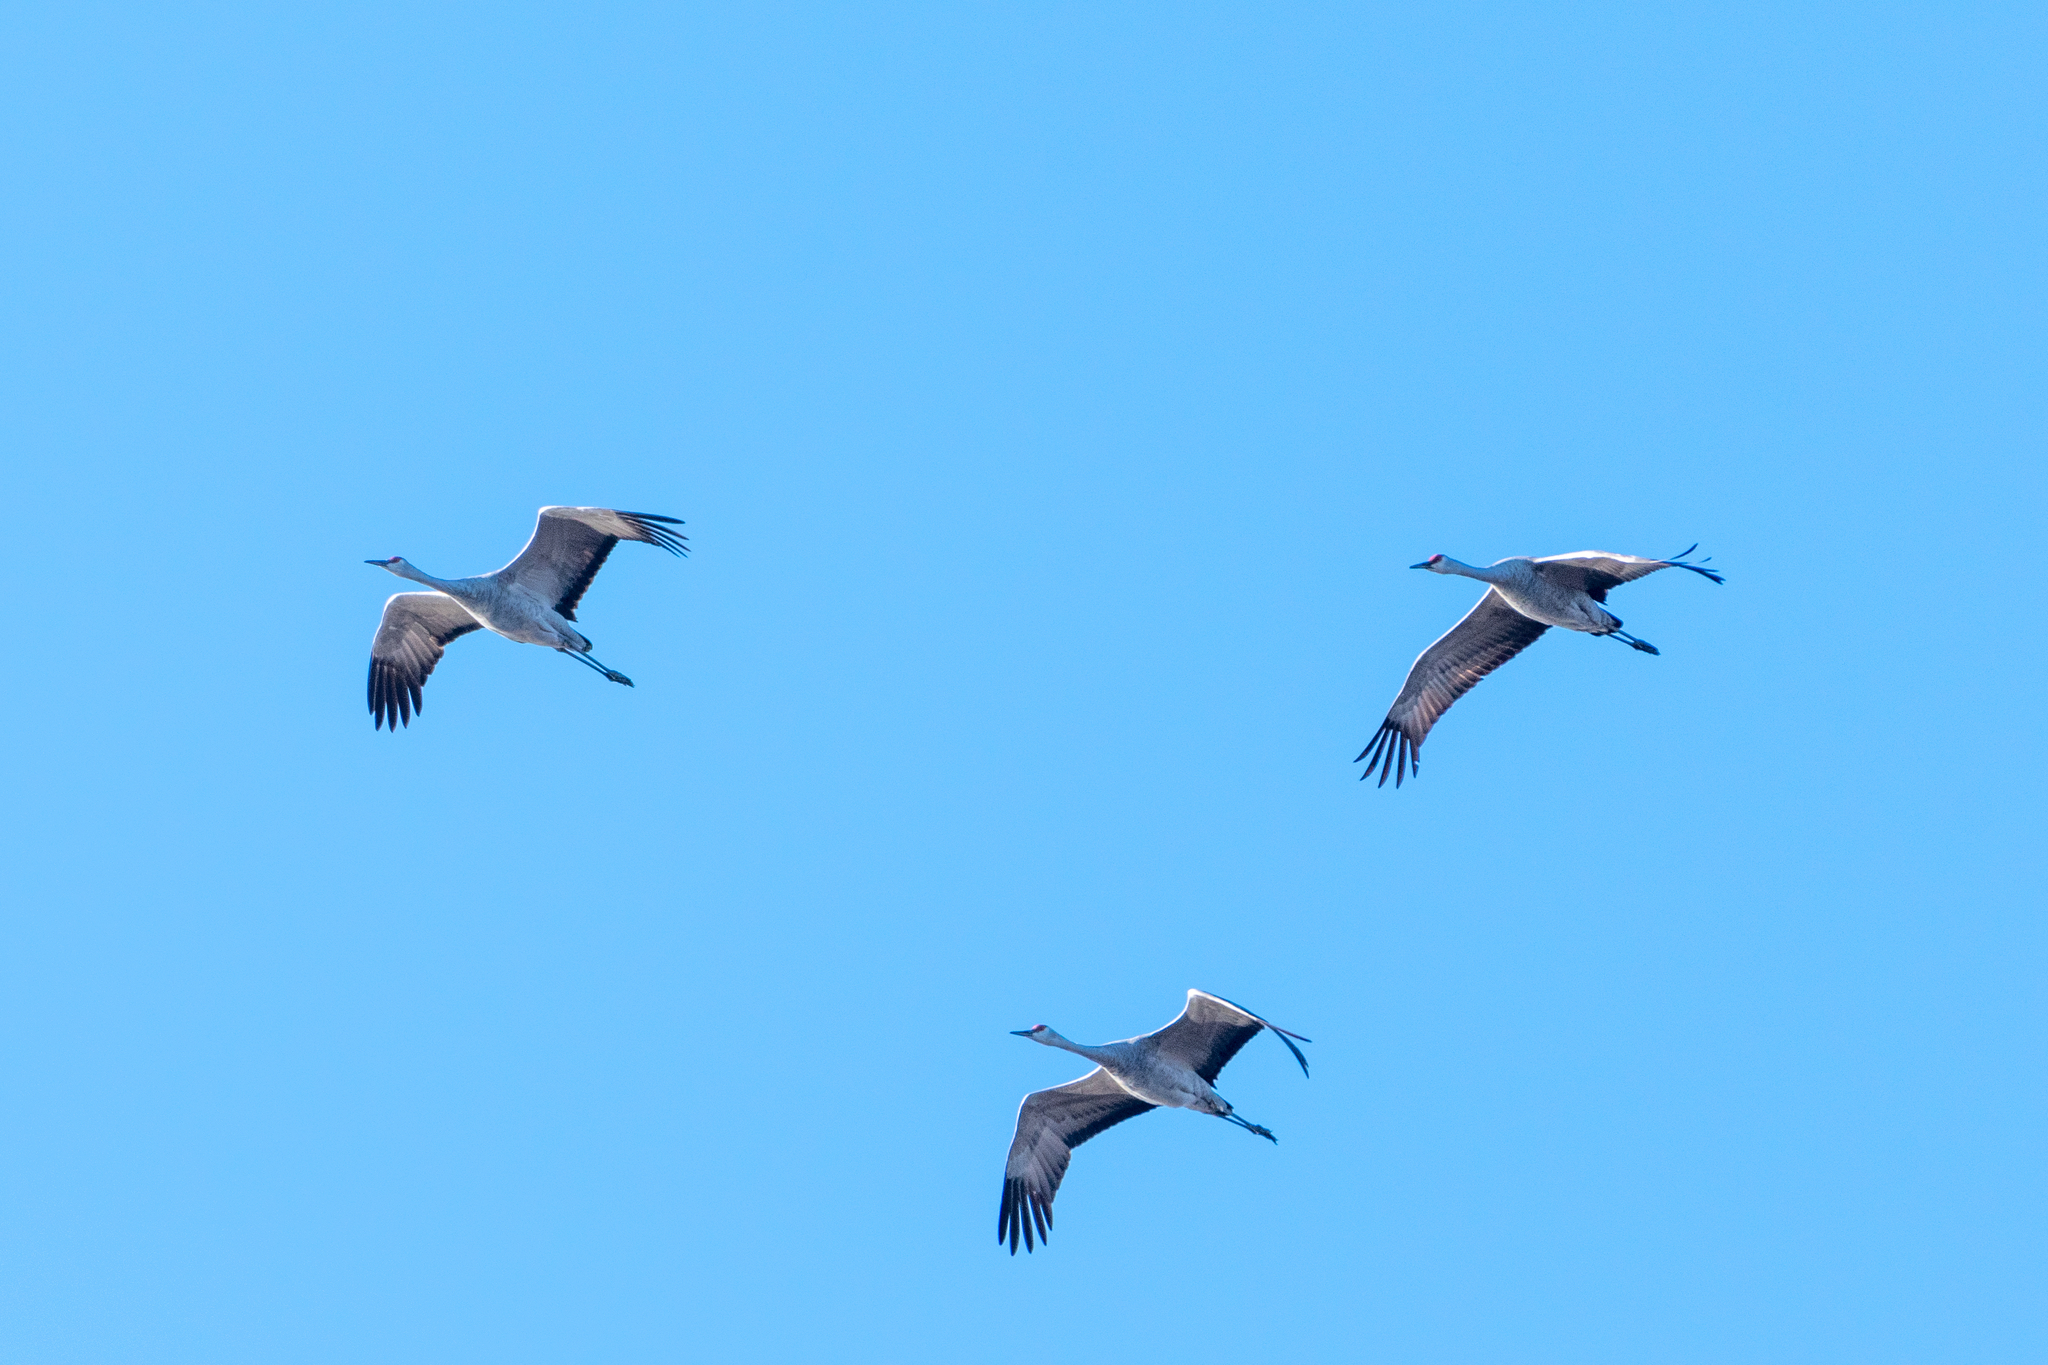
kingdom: Animalia
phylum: Chordata
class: Aves
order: Gruiformes
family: Gruidae
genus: Grus
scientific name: Grus canadensis
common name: Sandhill crane
